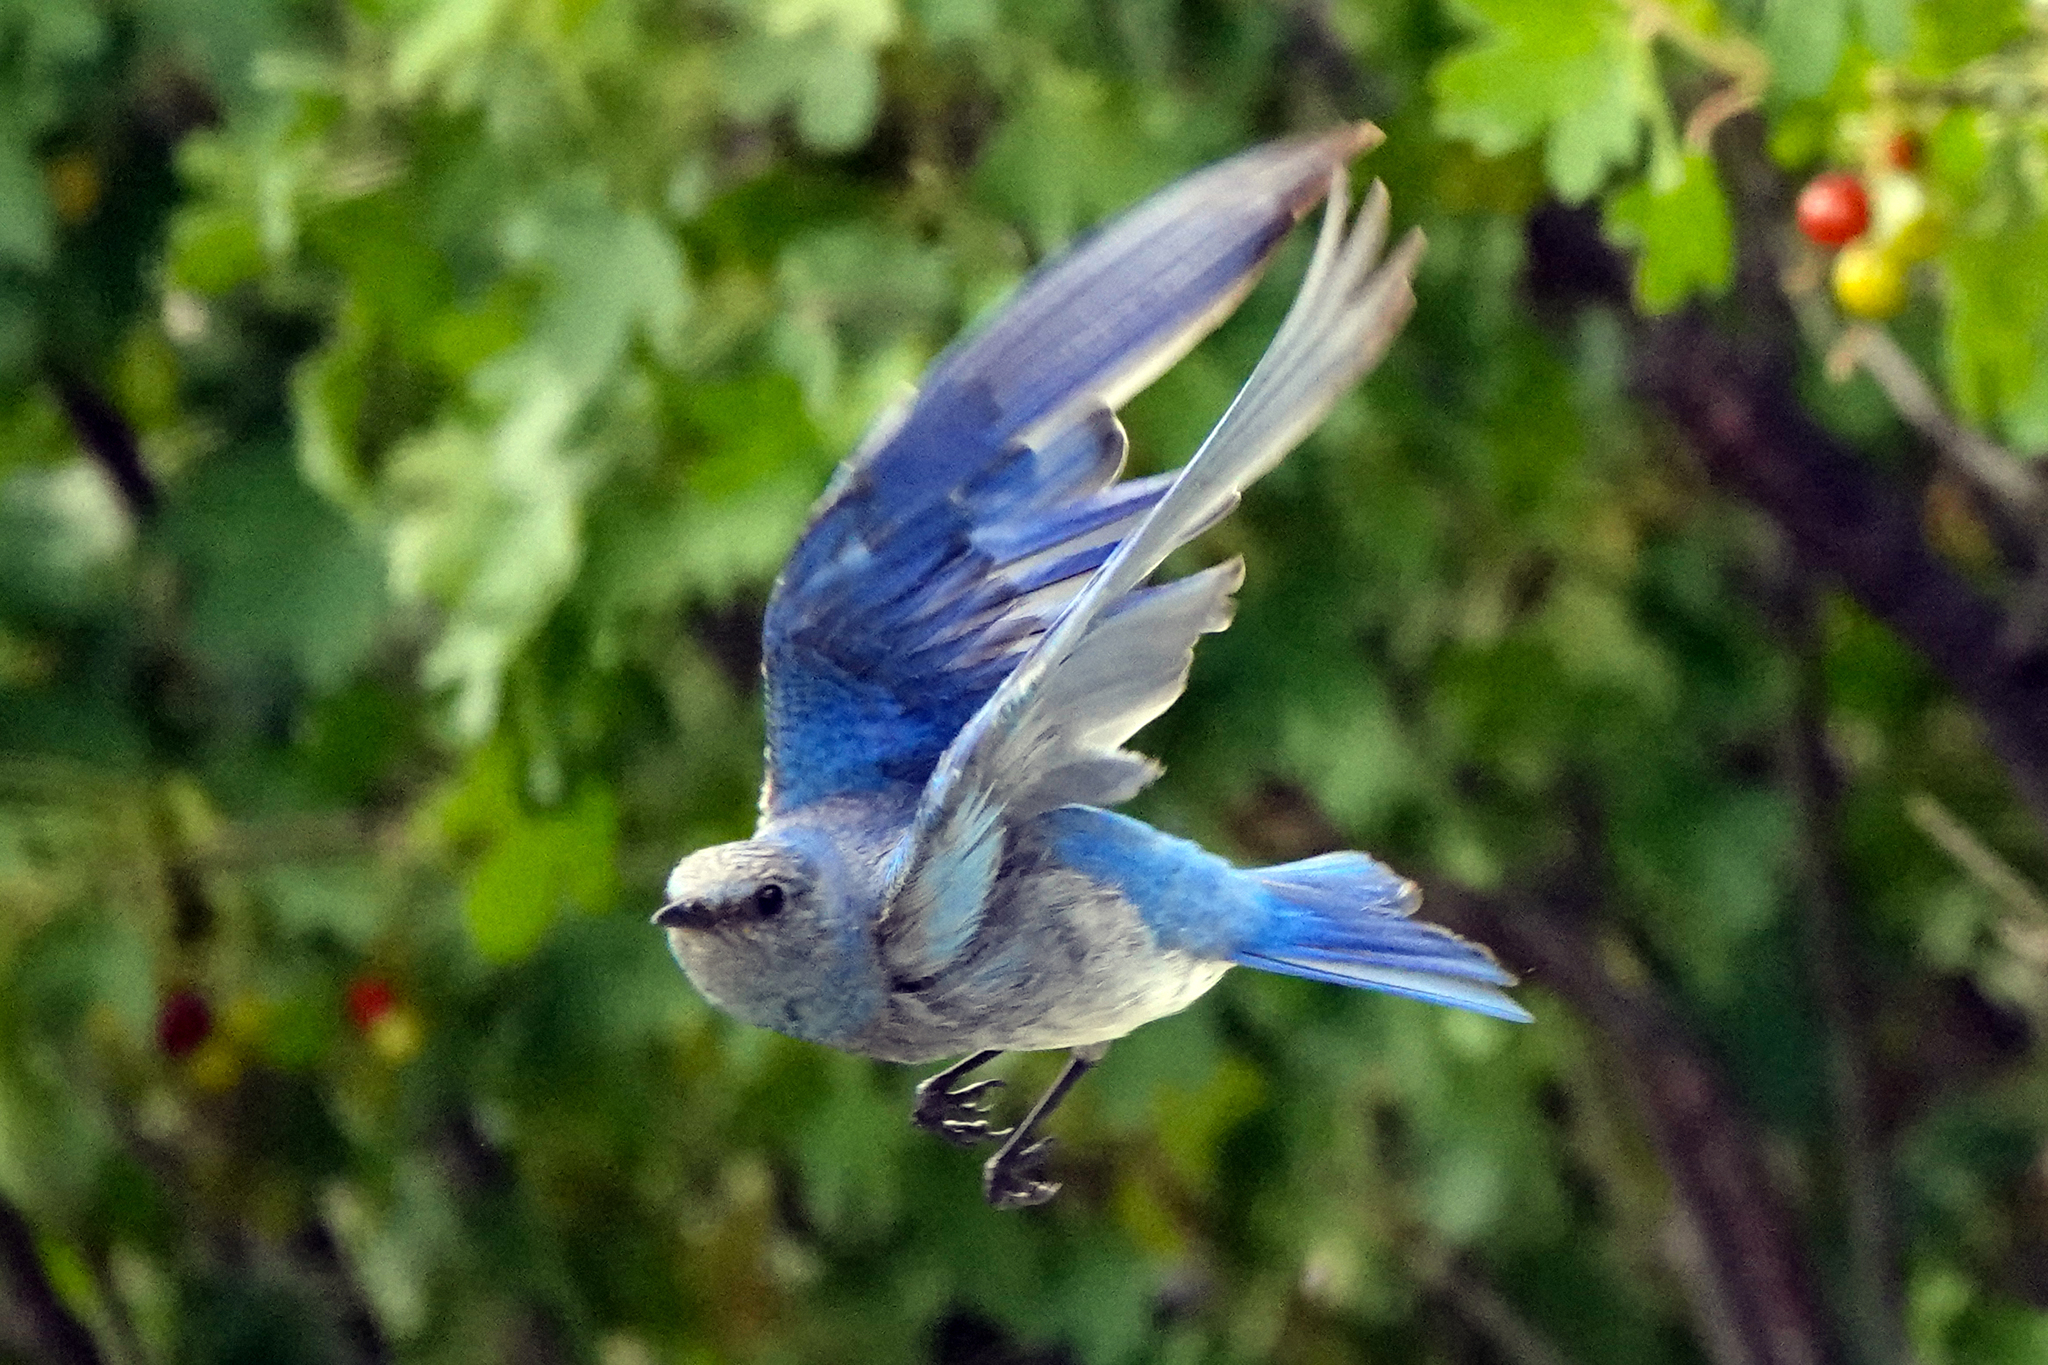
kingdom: Animalia
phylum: Chordata
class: Aves
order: Passeriformes
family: Turdidae
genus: Sialia
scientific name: Sialia currucoides
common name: Mountain bluebird
